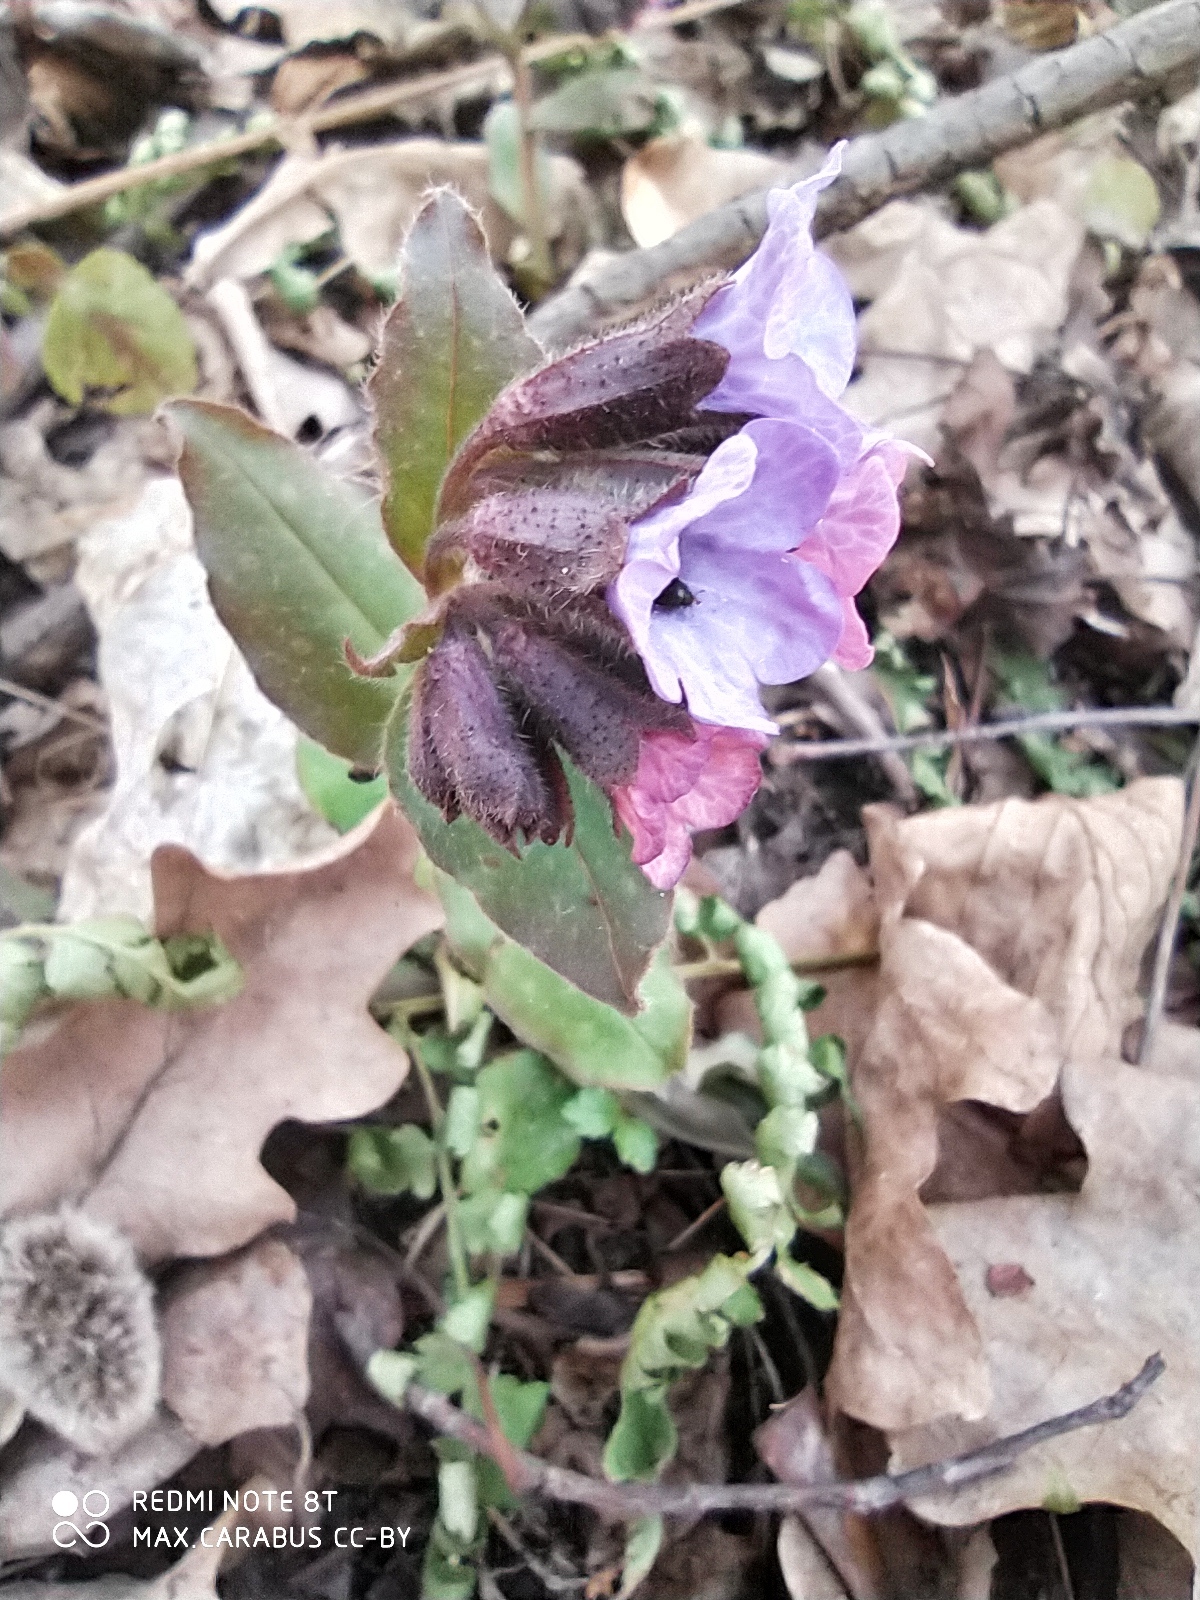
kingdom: Plantae
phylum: Tracheophyta
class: Magnoliopsida
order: Boraginales
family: Boraginaceae
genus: Pulmonaria
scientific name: Pulmonaria obscura
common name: Suffolk lungwort
